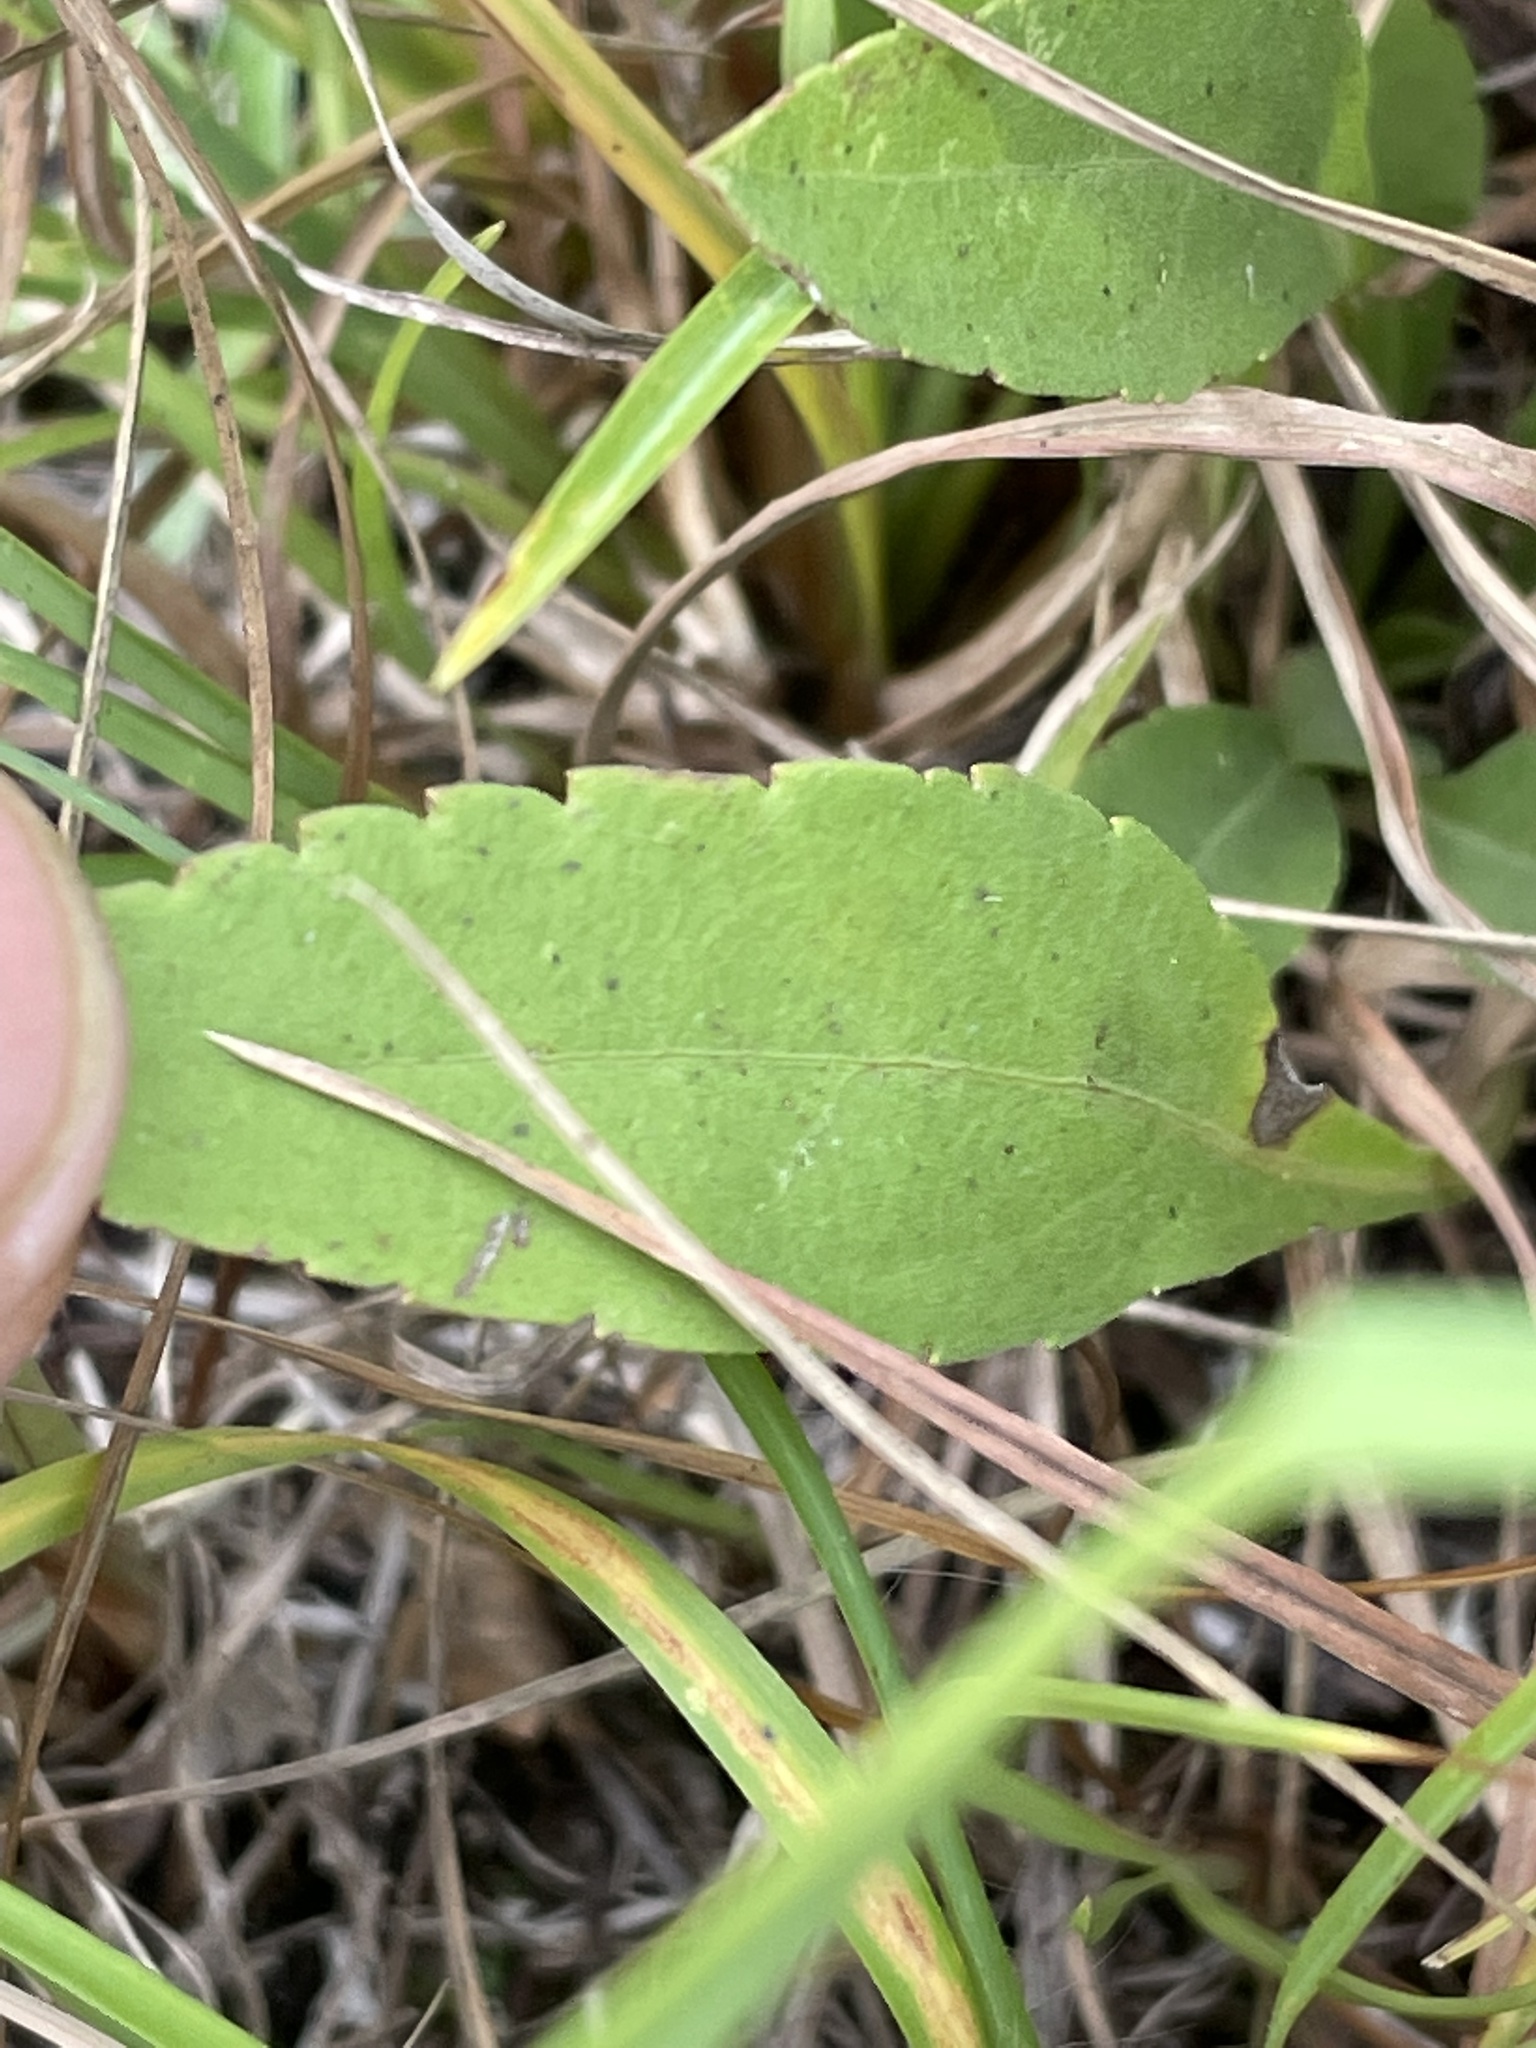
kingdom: Plantae
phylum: Tracheophyta
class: Magnoliopsida
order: Asterales
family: Asteraceae
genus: Solidago
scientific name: Solidago nemoralis
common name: Grey goldenrod
